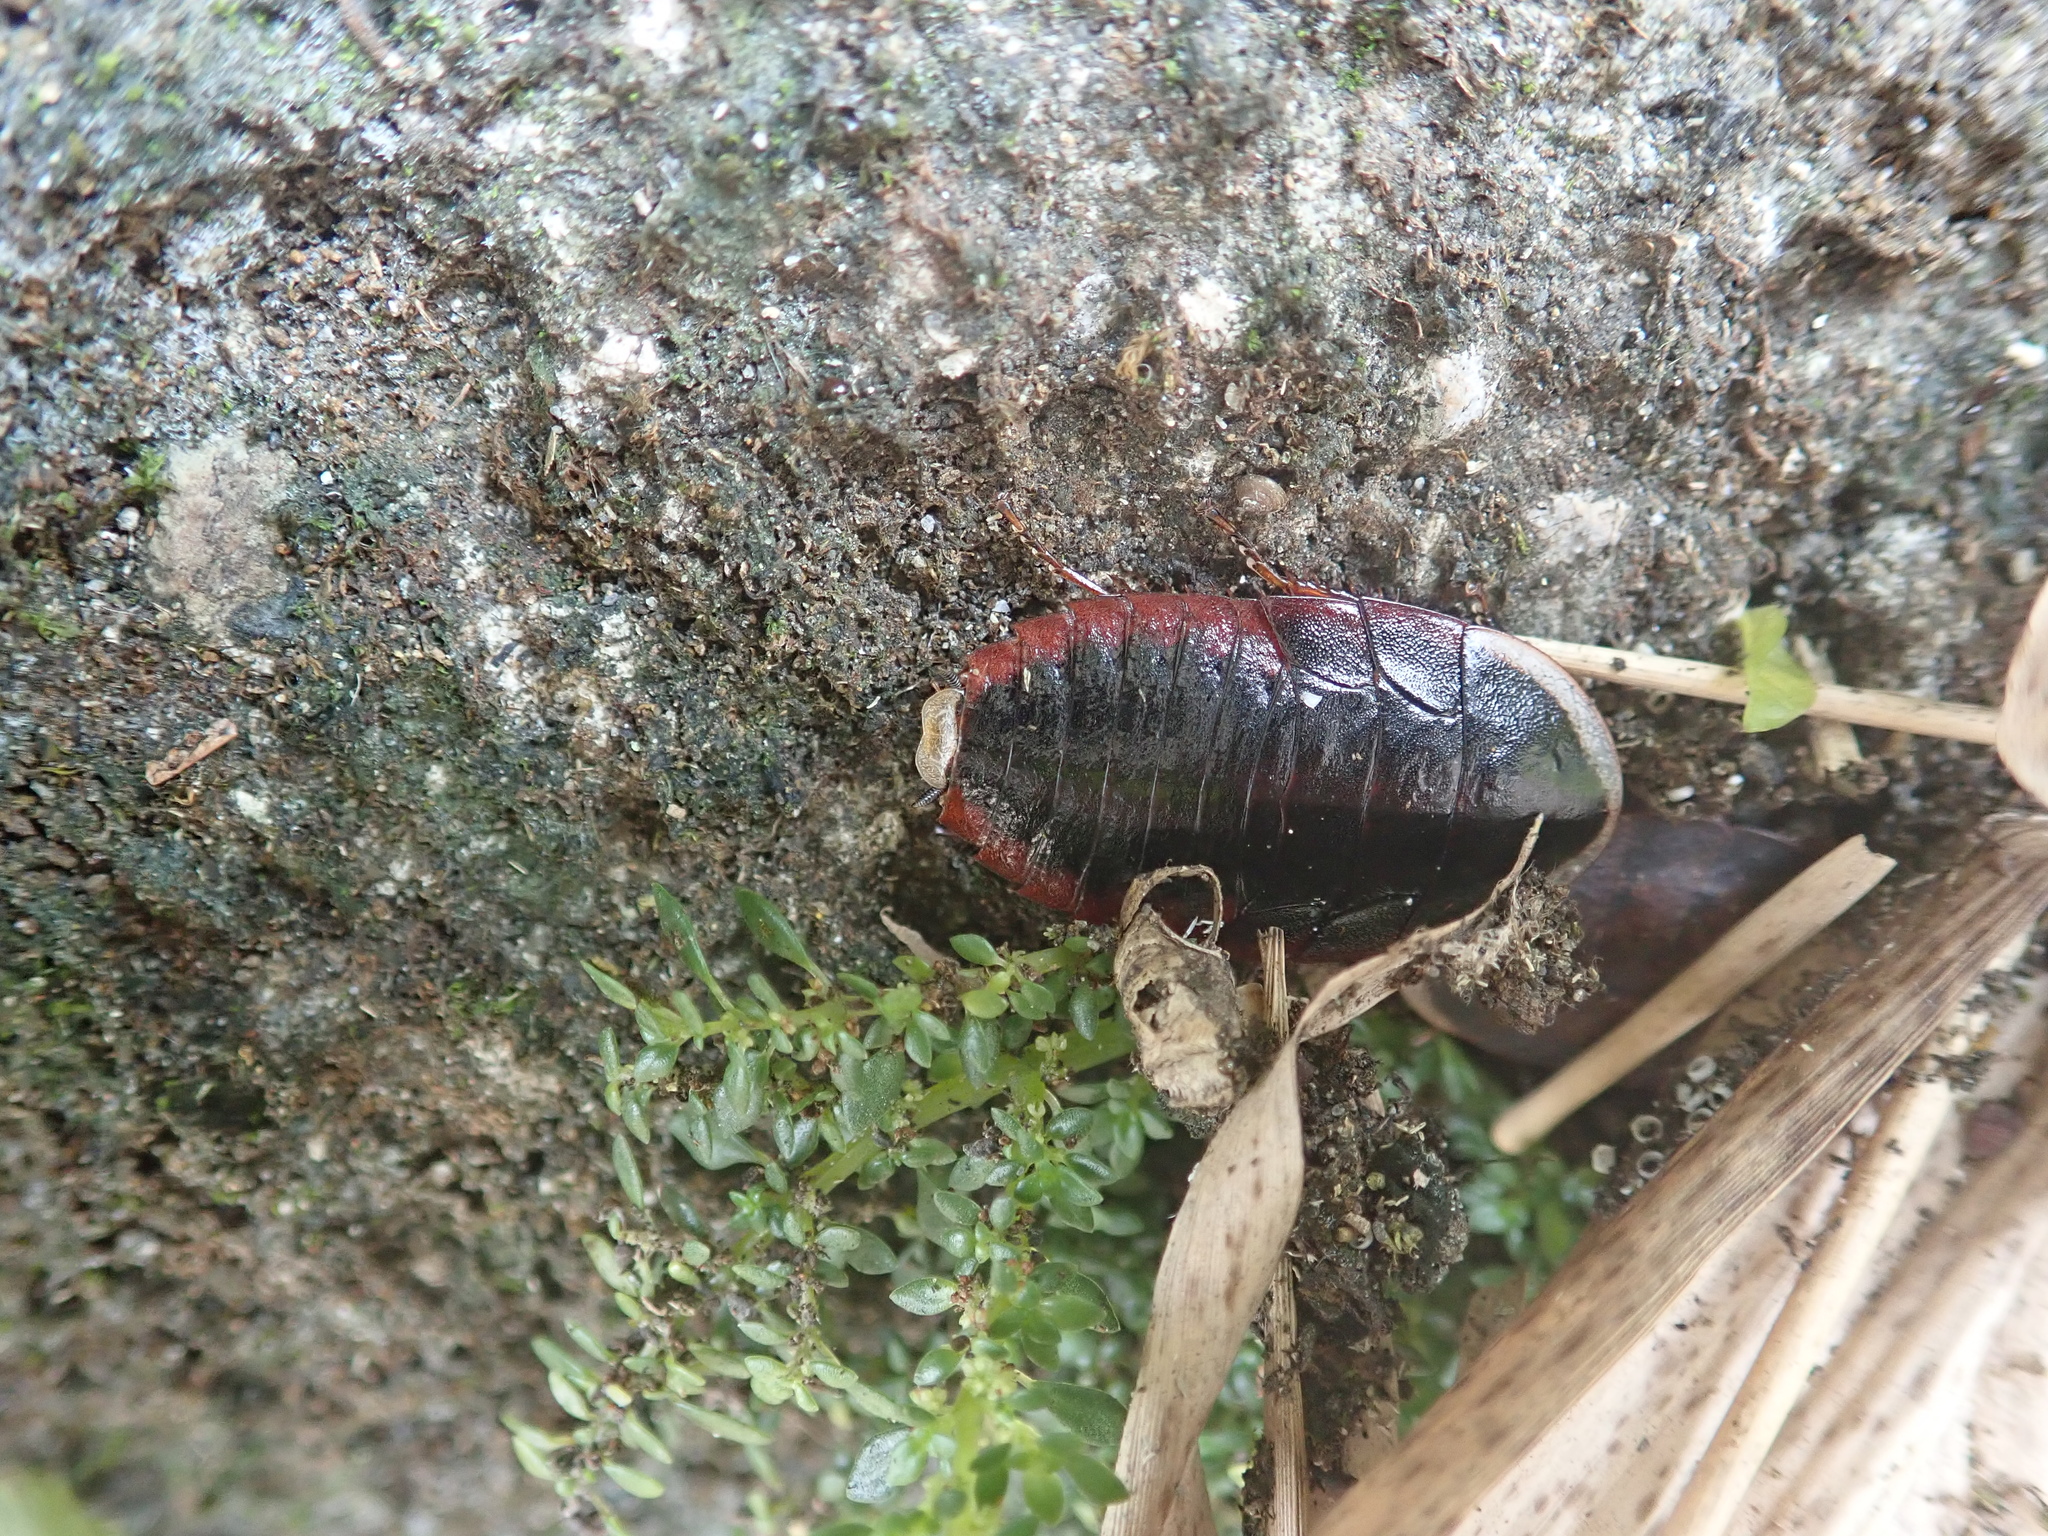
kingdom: Animalia
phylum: Arthropoda
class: Insecta
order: Blattodea
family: Blaberidae
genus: Opisthoplatia
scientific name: Opisthoplatia orientalis
